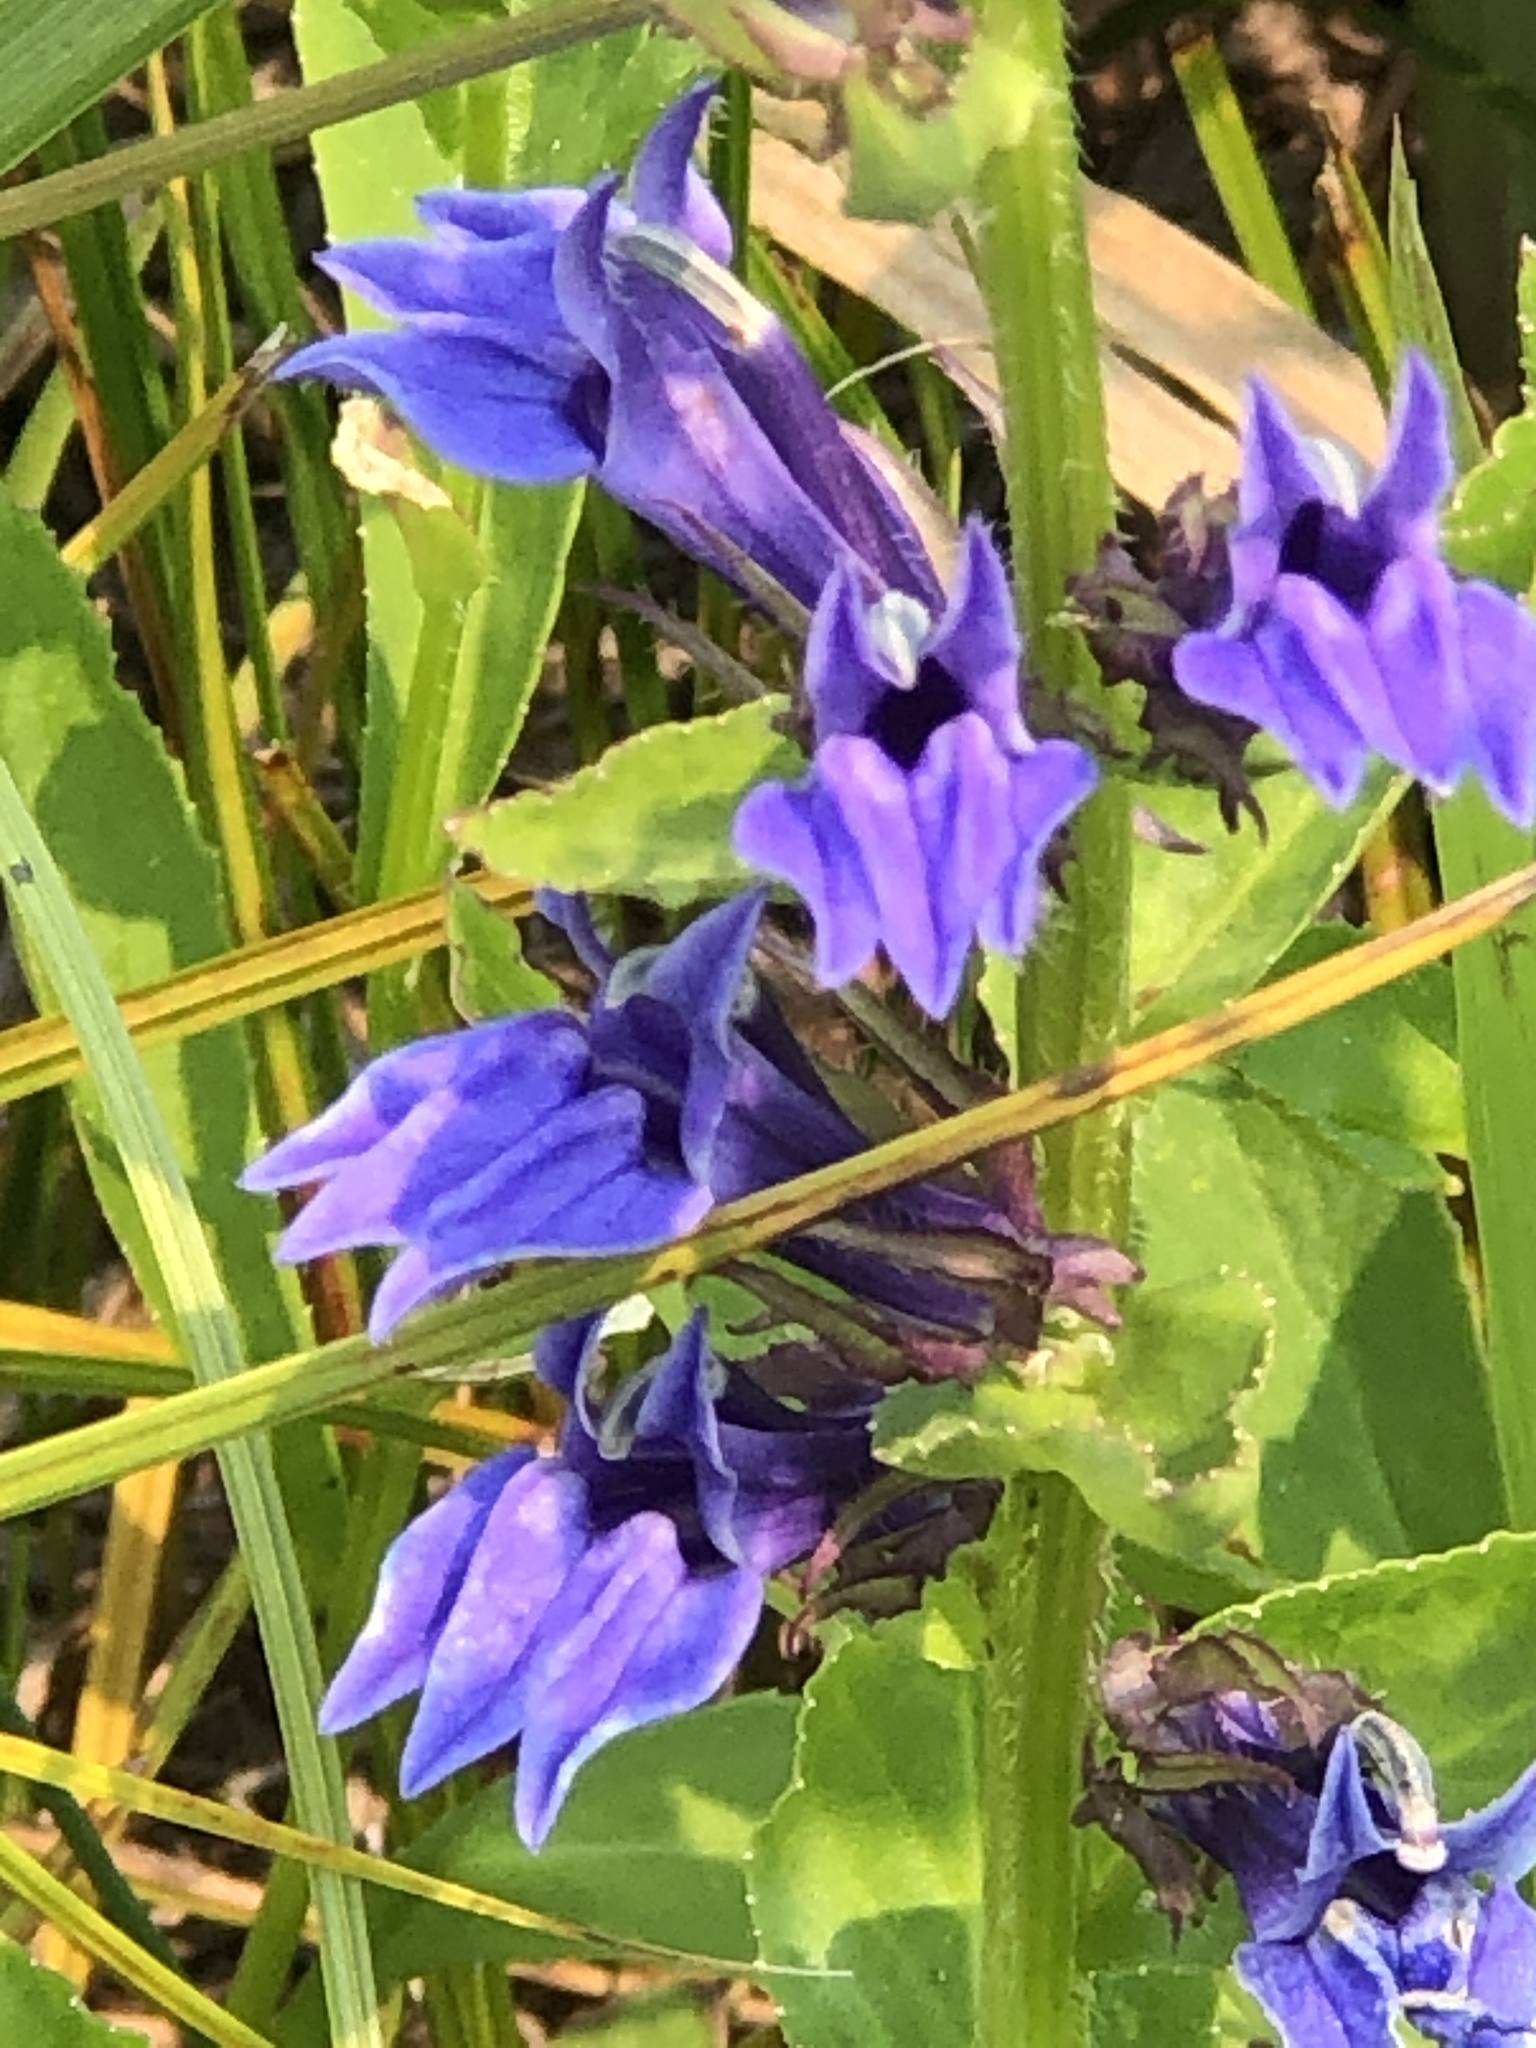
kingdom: Plantae
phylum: Tracheophyta
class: Magnoliopsida
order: Asterales
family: Campanulaceae
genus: Lobelia
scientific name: Lobelia siphilitica
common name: Great lobelia
